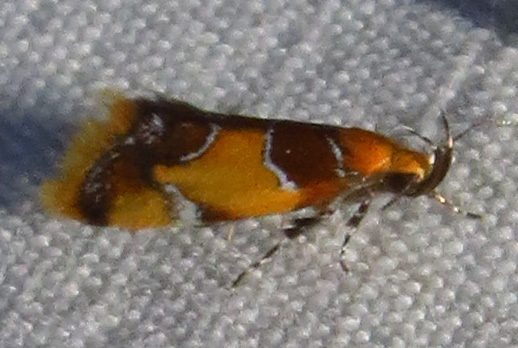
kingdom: Animalia
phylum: Arthropoda
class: Insecta
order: Lepidoptera
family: Oecophoridae
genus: Callima
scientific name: Callima argenticinctella
